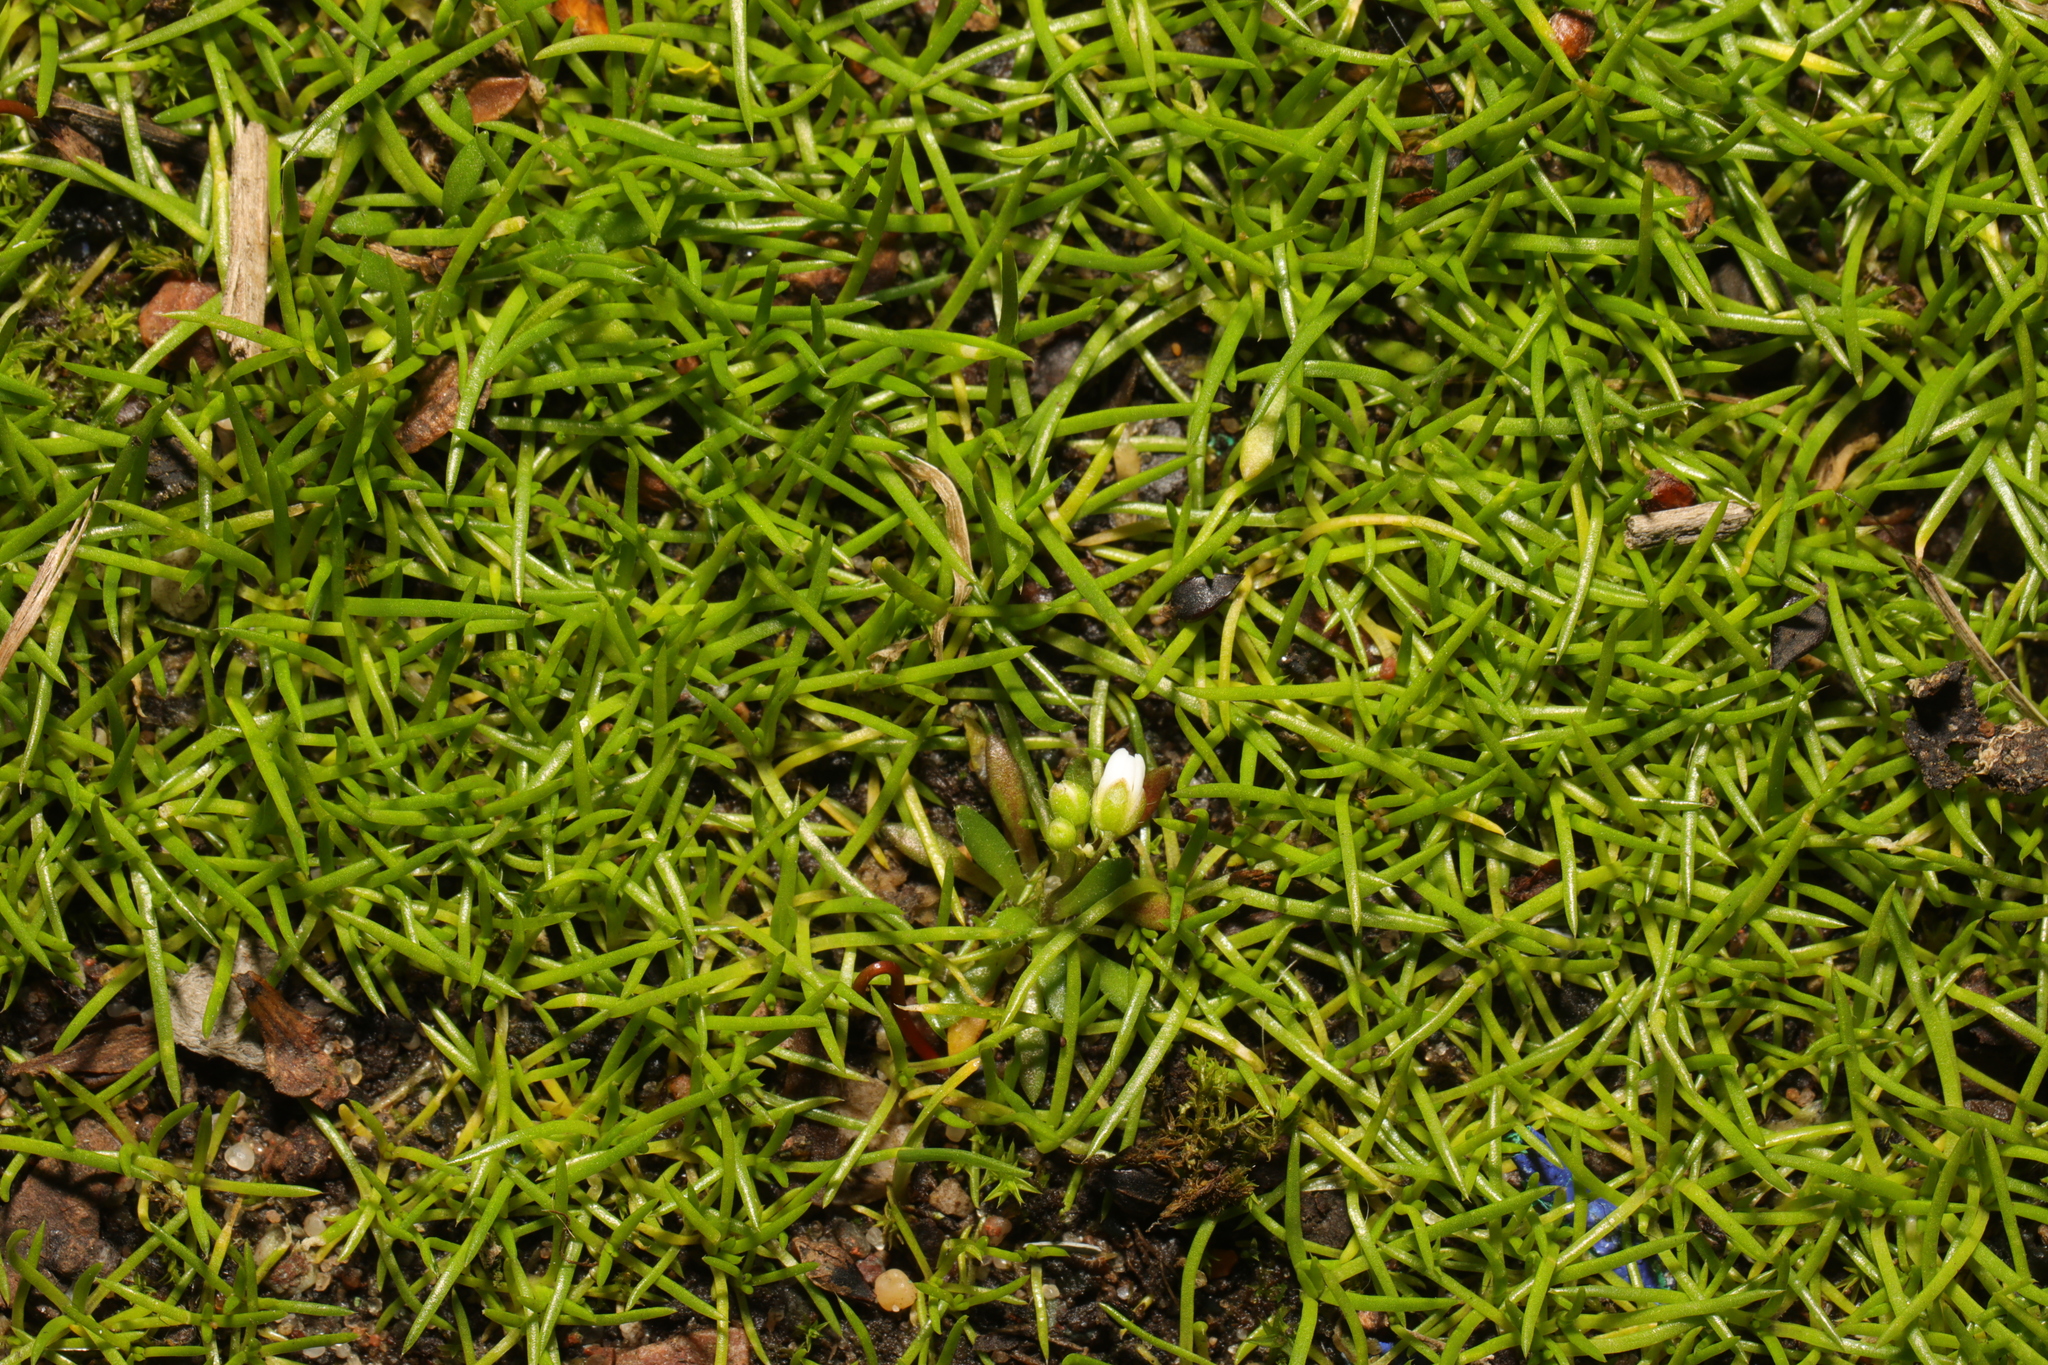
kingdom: Plantae
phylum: Tracheophyta
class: Magnoliopsida
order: Caryophyllales
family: Caryophyllaceae
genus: Sagina
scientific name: Sagina procumbens
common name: Procumbent pearlwort
